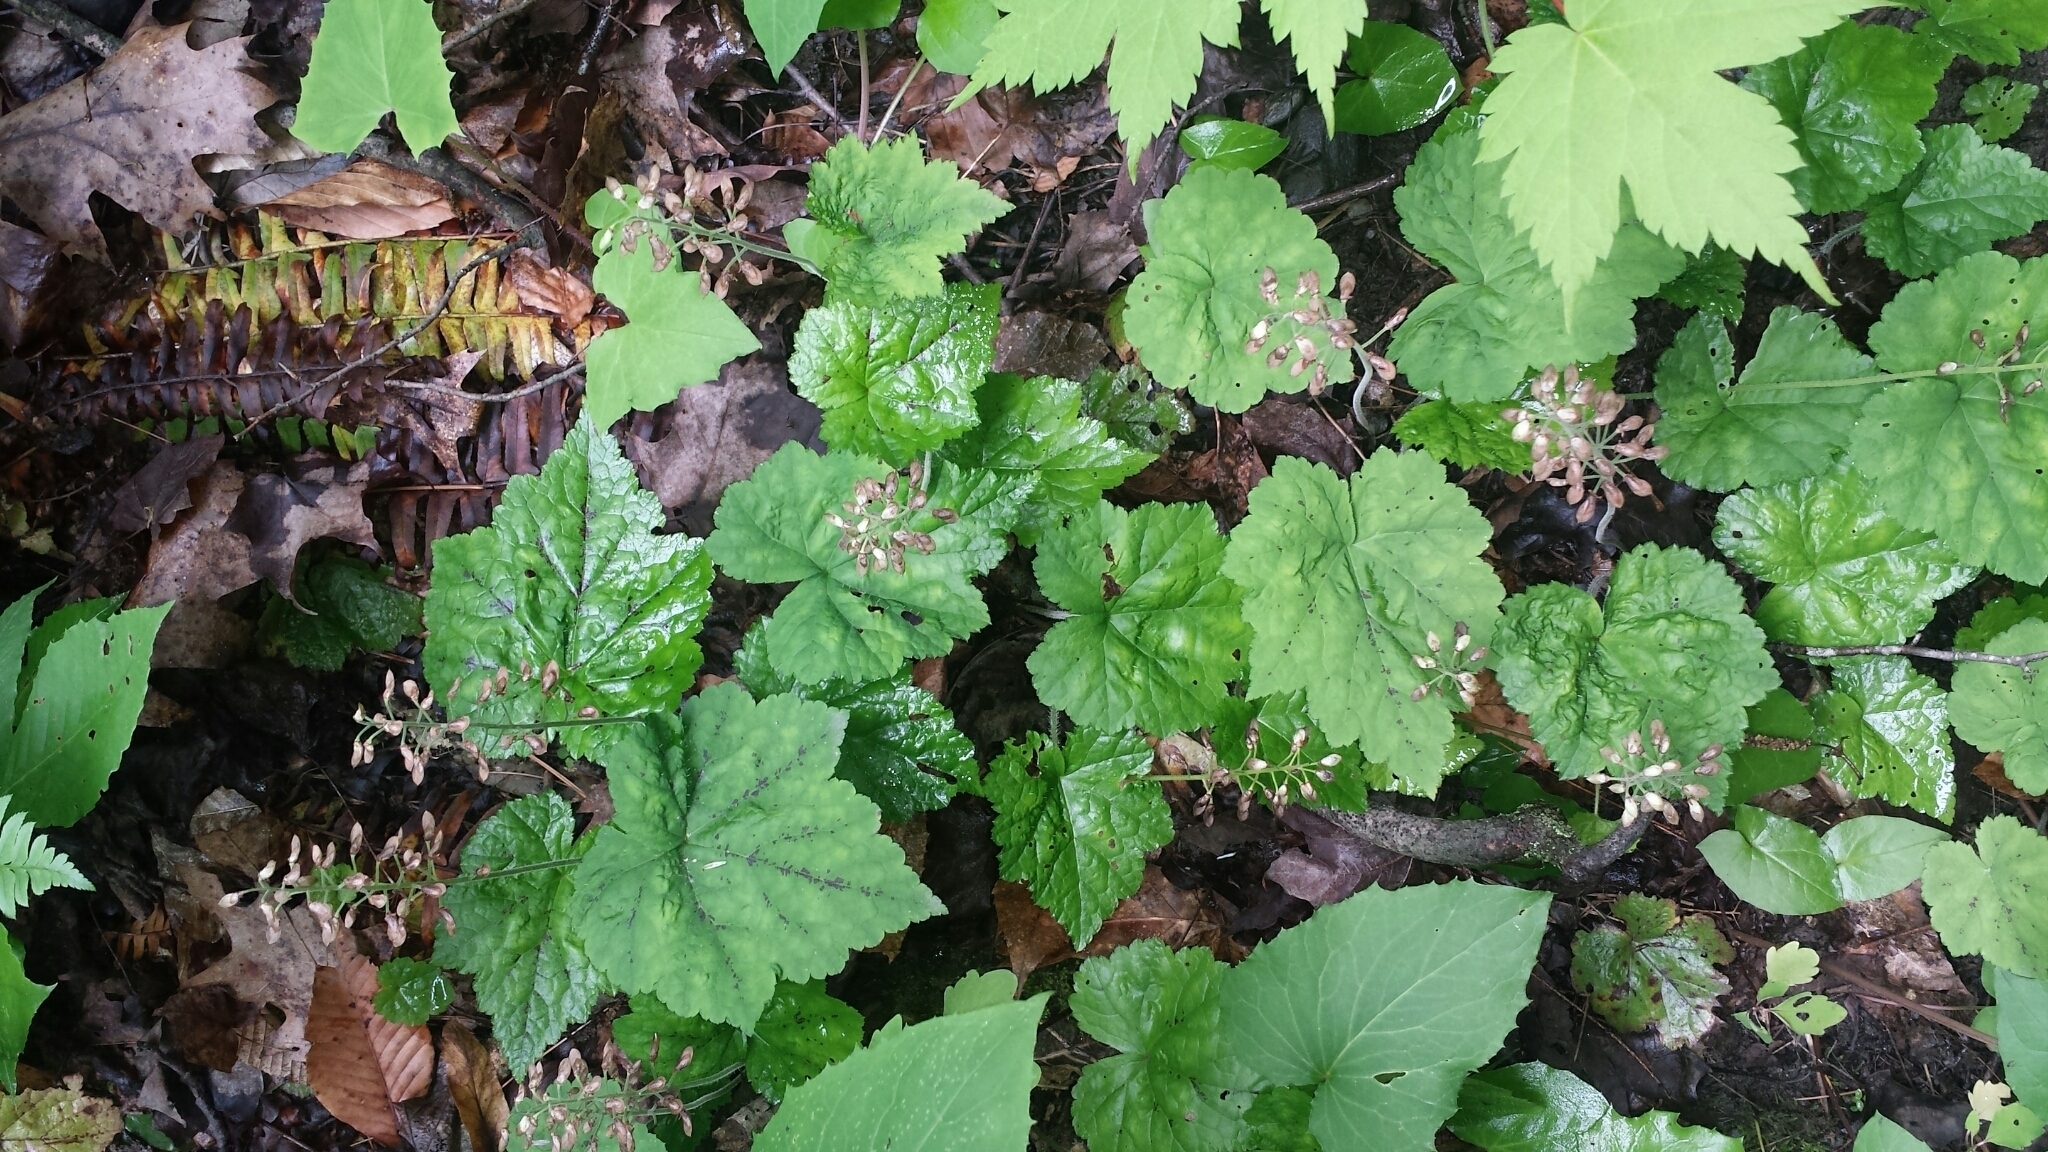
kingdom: Plantae
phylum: Tracheophyta
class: Magnoliopsida
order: Saxifragales
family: Saxifragaceae
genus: Tiarella
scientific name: Tiarella stolonifera
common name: Stoloniferous foamflower
